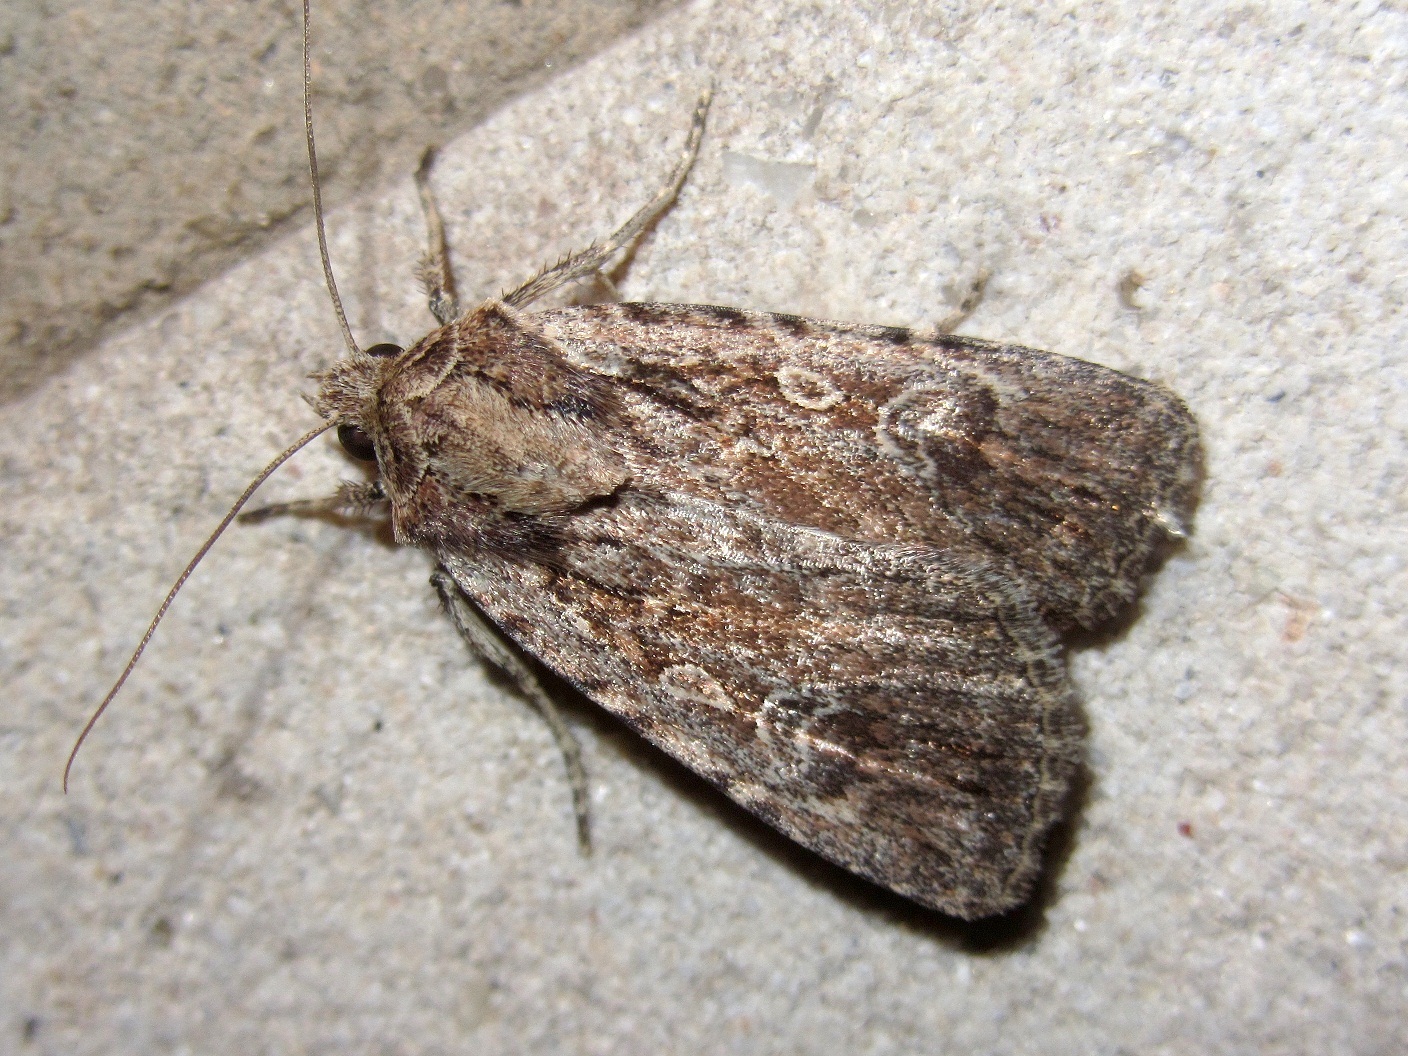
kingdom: Animalia
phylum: Arthropoda
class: Insecta
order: Lepidoptera
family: Noctuidae
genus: Dichagyris
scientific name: Dichagyris orientis
